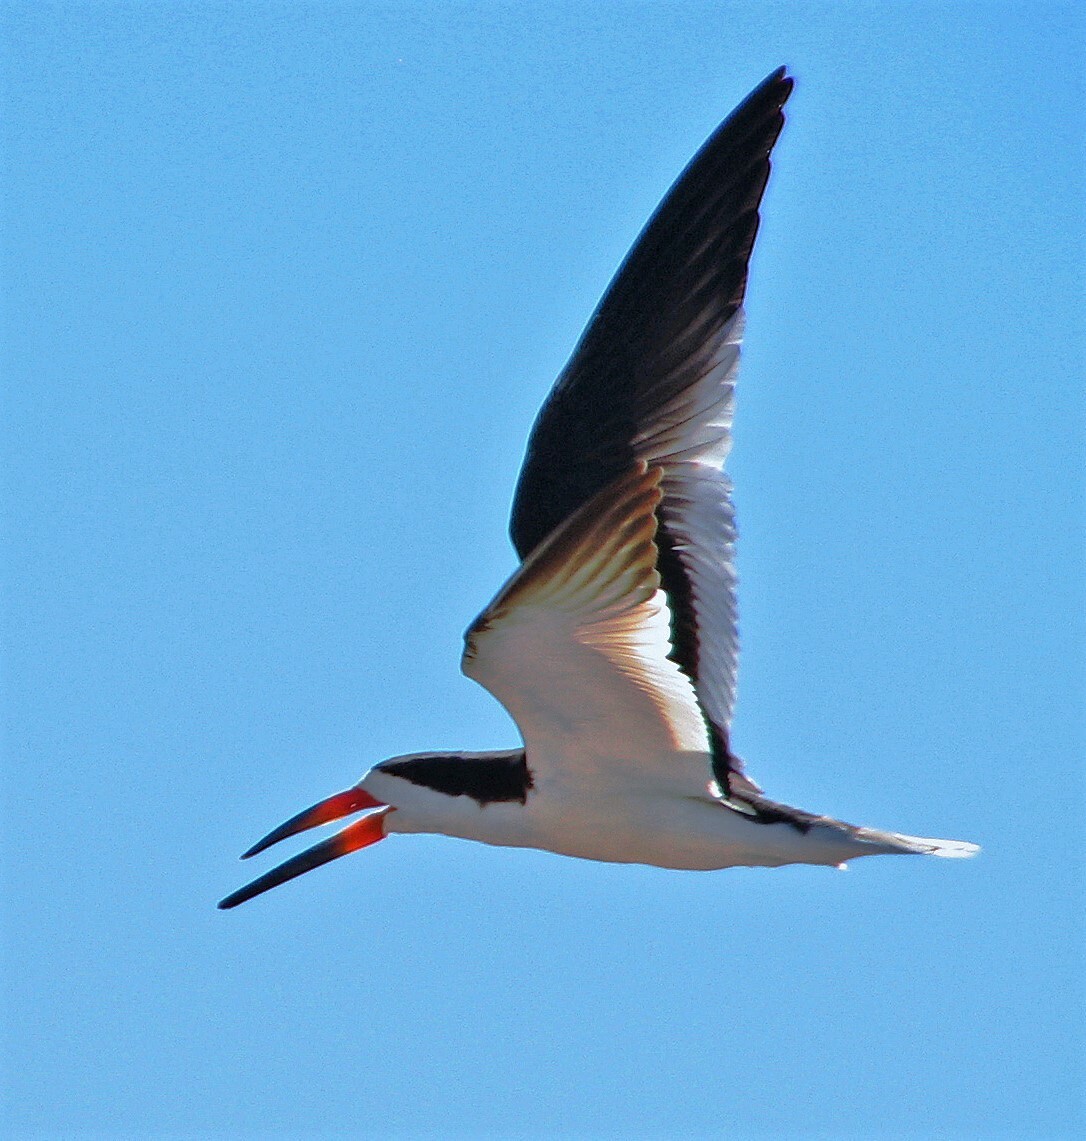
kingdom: Animalia
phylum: Chordata
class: Aves
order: Charadriiformes
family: Laridae
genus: Rynchops
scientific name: Rynchops niger
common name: Black skimmer
